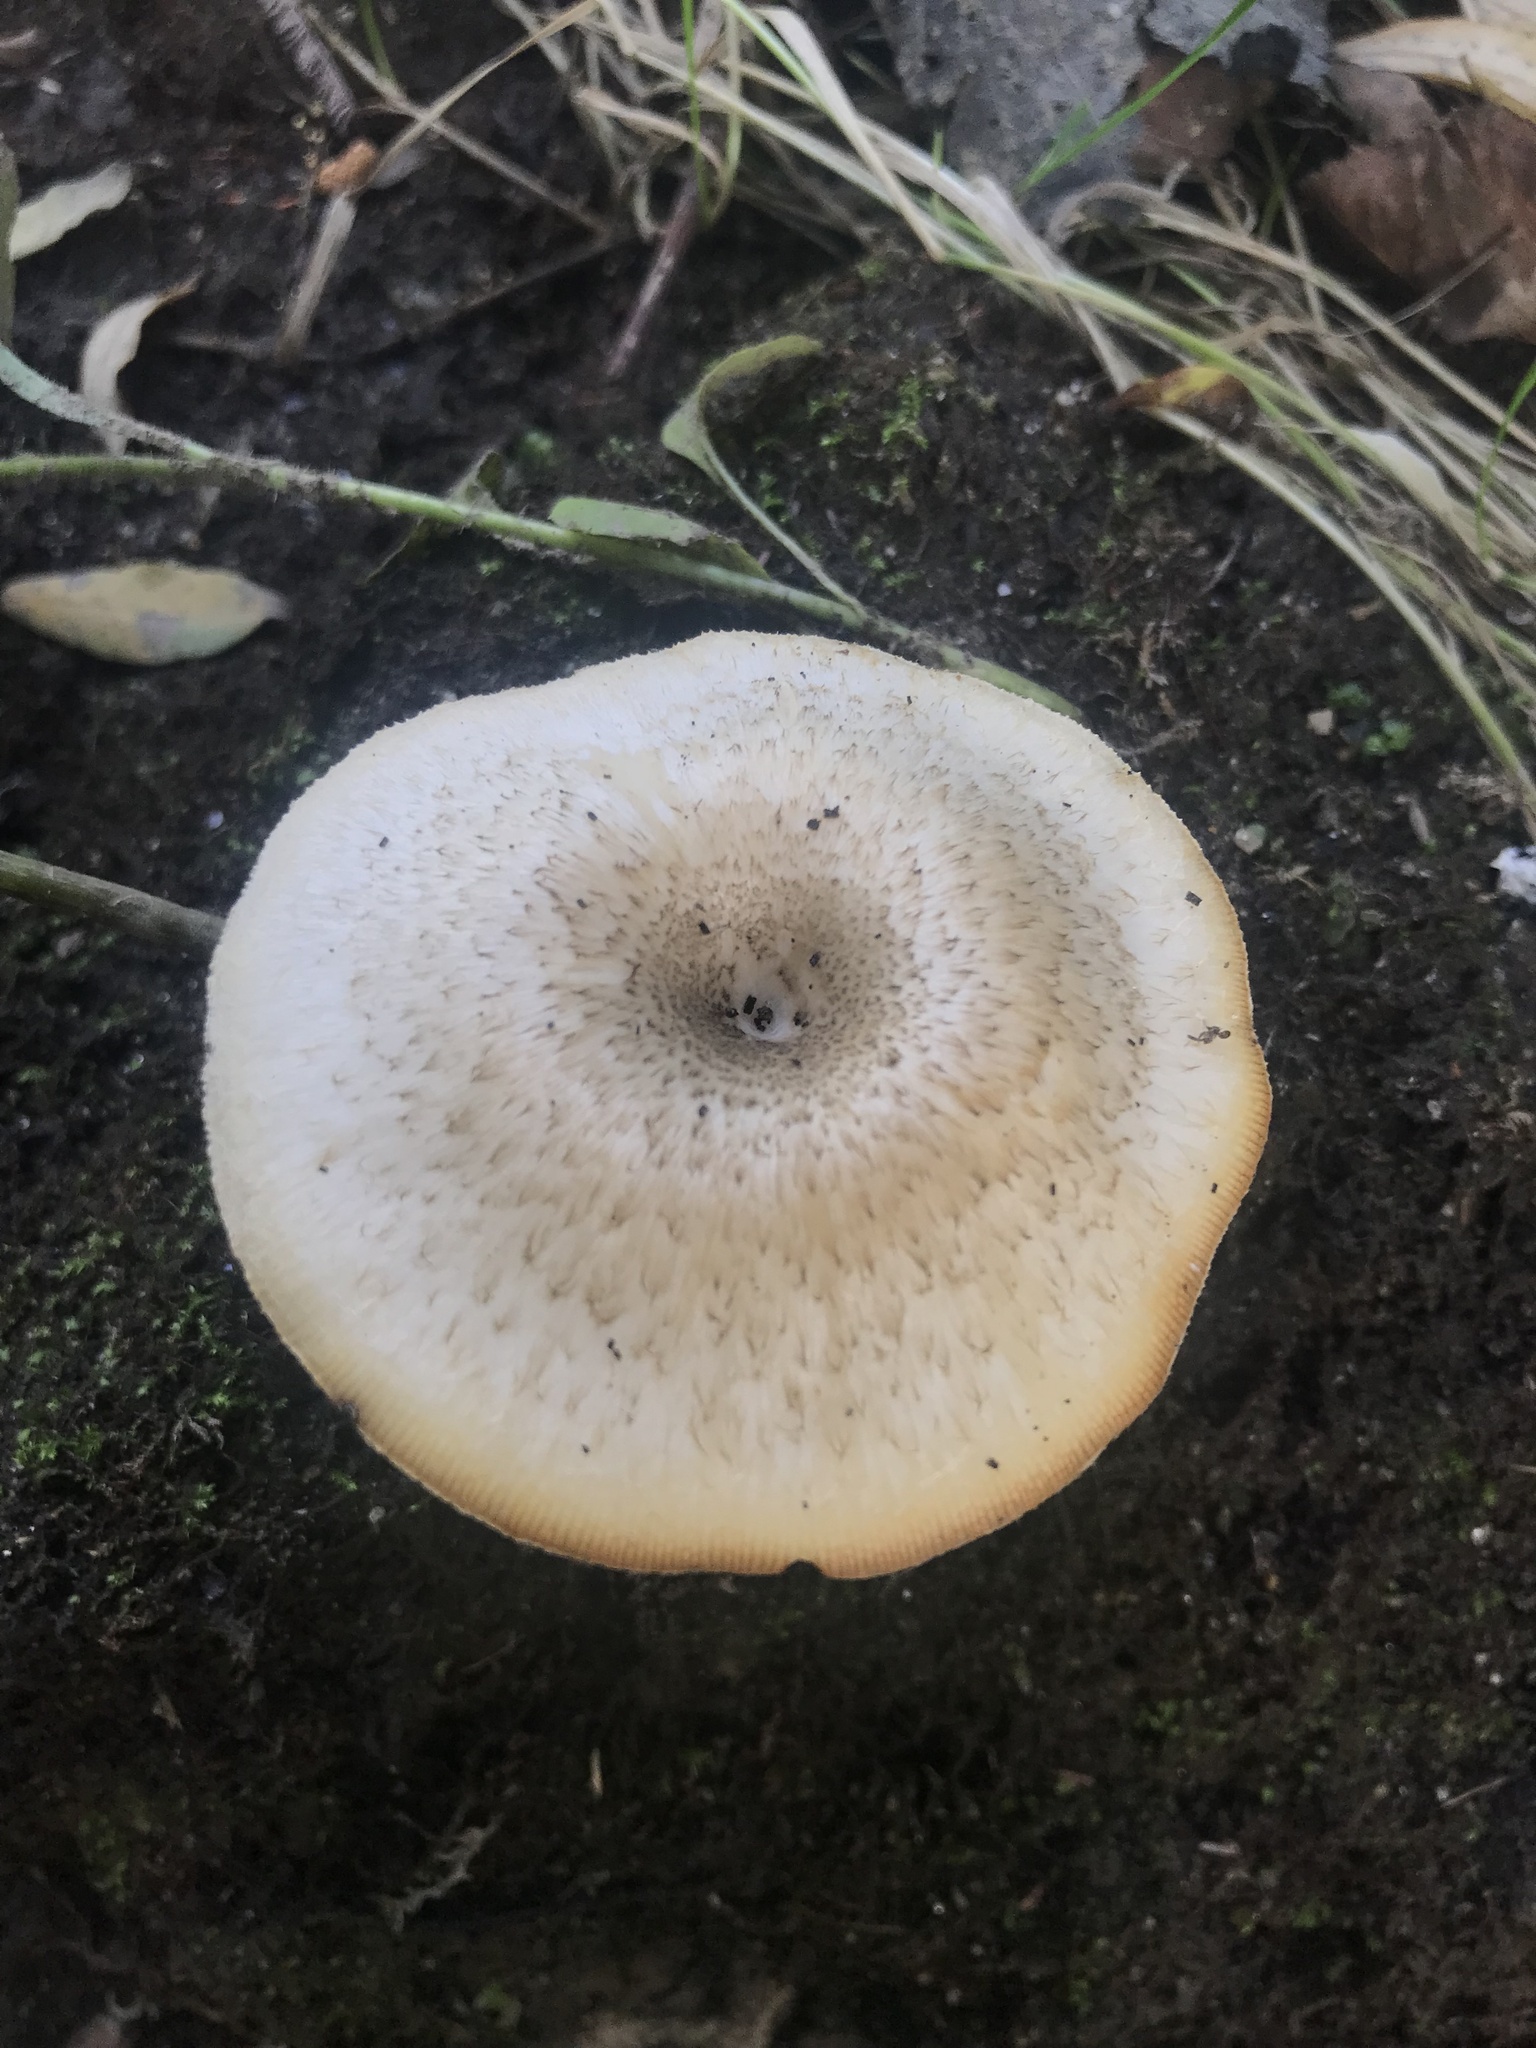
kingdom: Fungi
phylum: Basidiomycota
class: Agaricomycetes
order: Polyporales
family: Polyporaceae
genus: Lentinus
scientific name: Lentinus tigrinus
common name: Tiger sawgill
